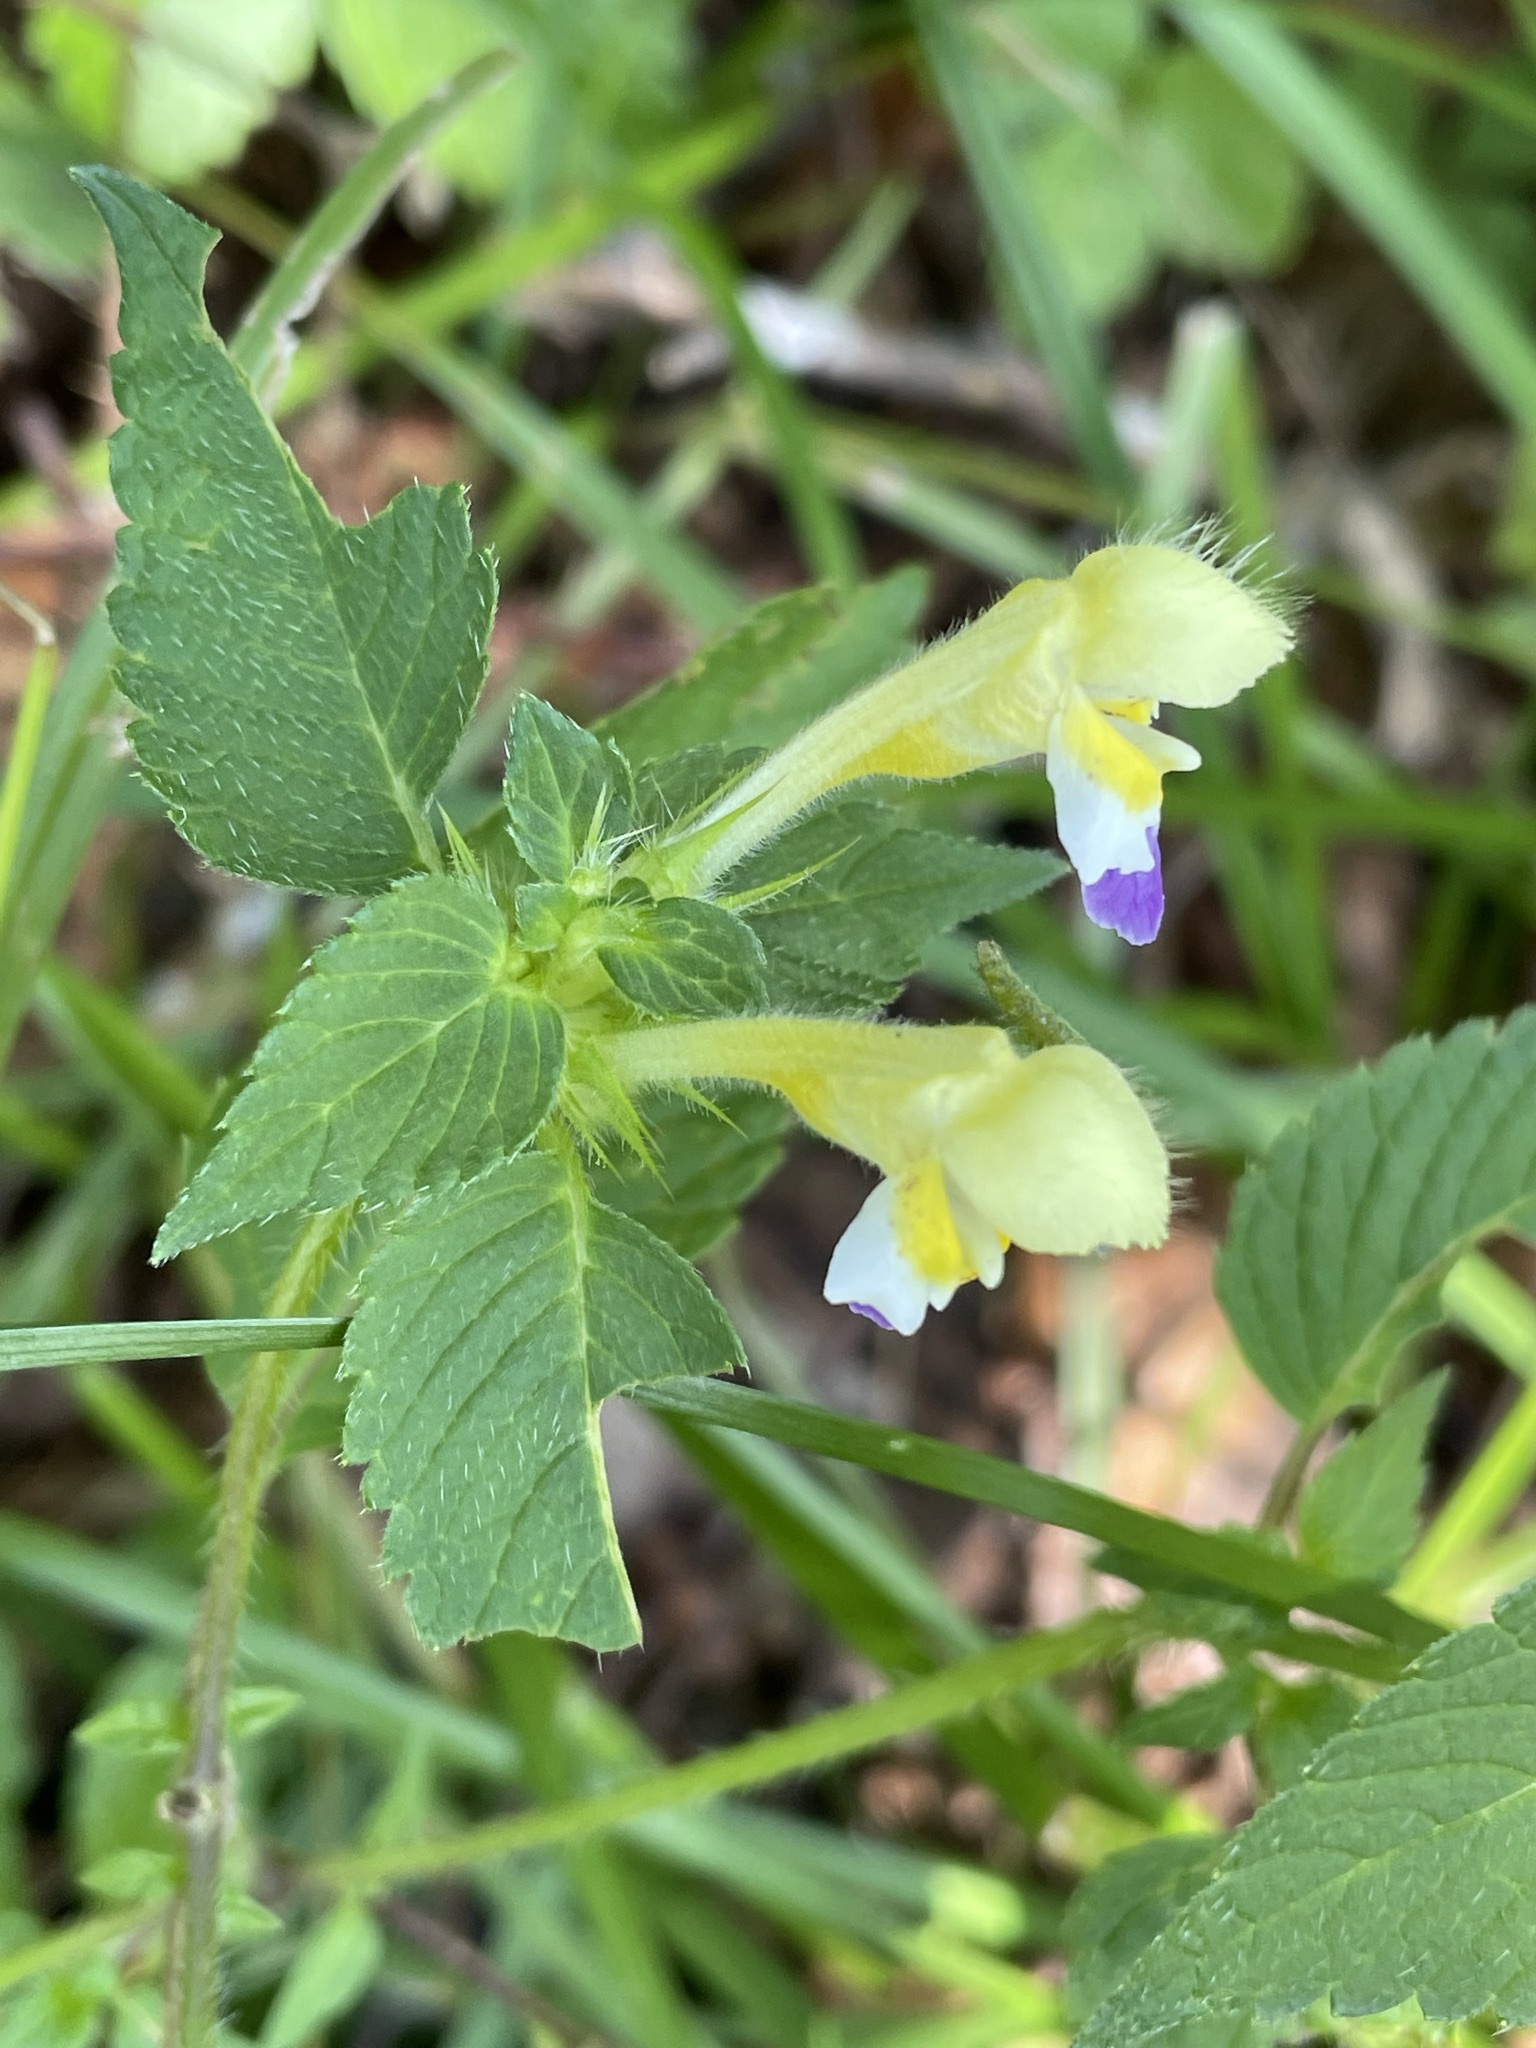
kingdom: Plantae
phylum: Tracheophyta
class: Magnoliopsida
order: Lamiales
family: Lamiaceae
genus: Galeopsis
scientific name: Galeopsis speciosa
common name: Large-flowered hemp-nettle
